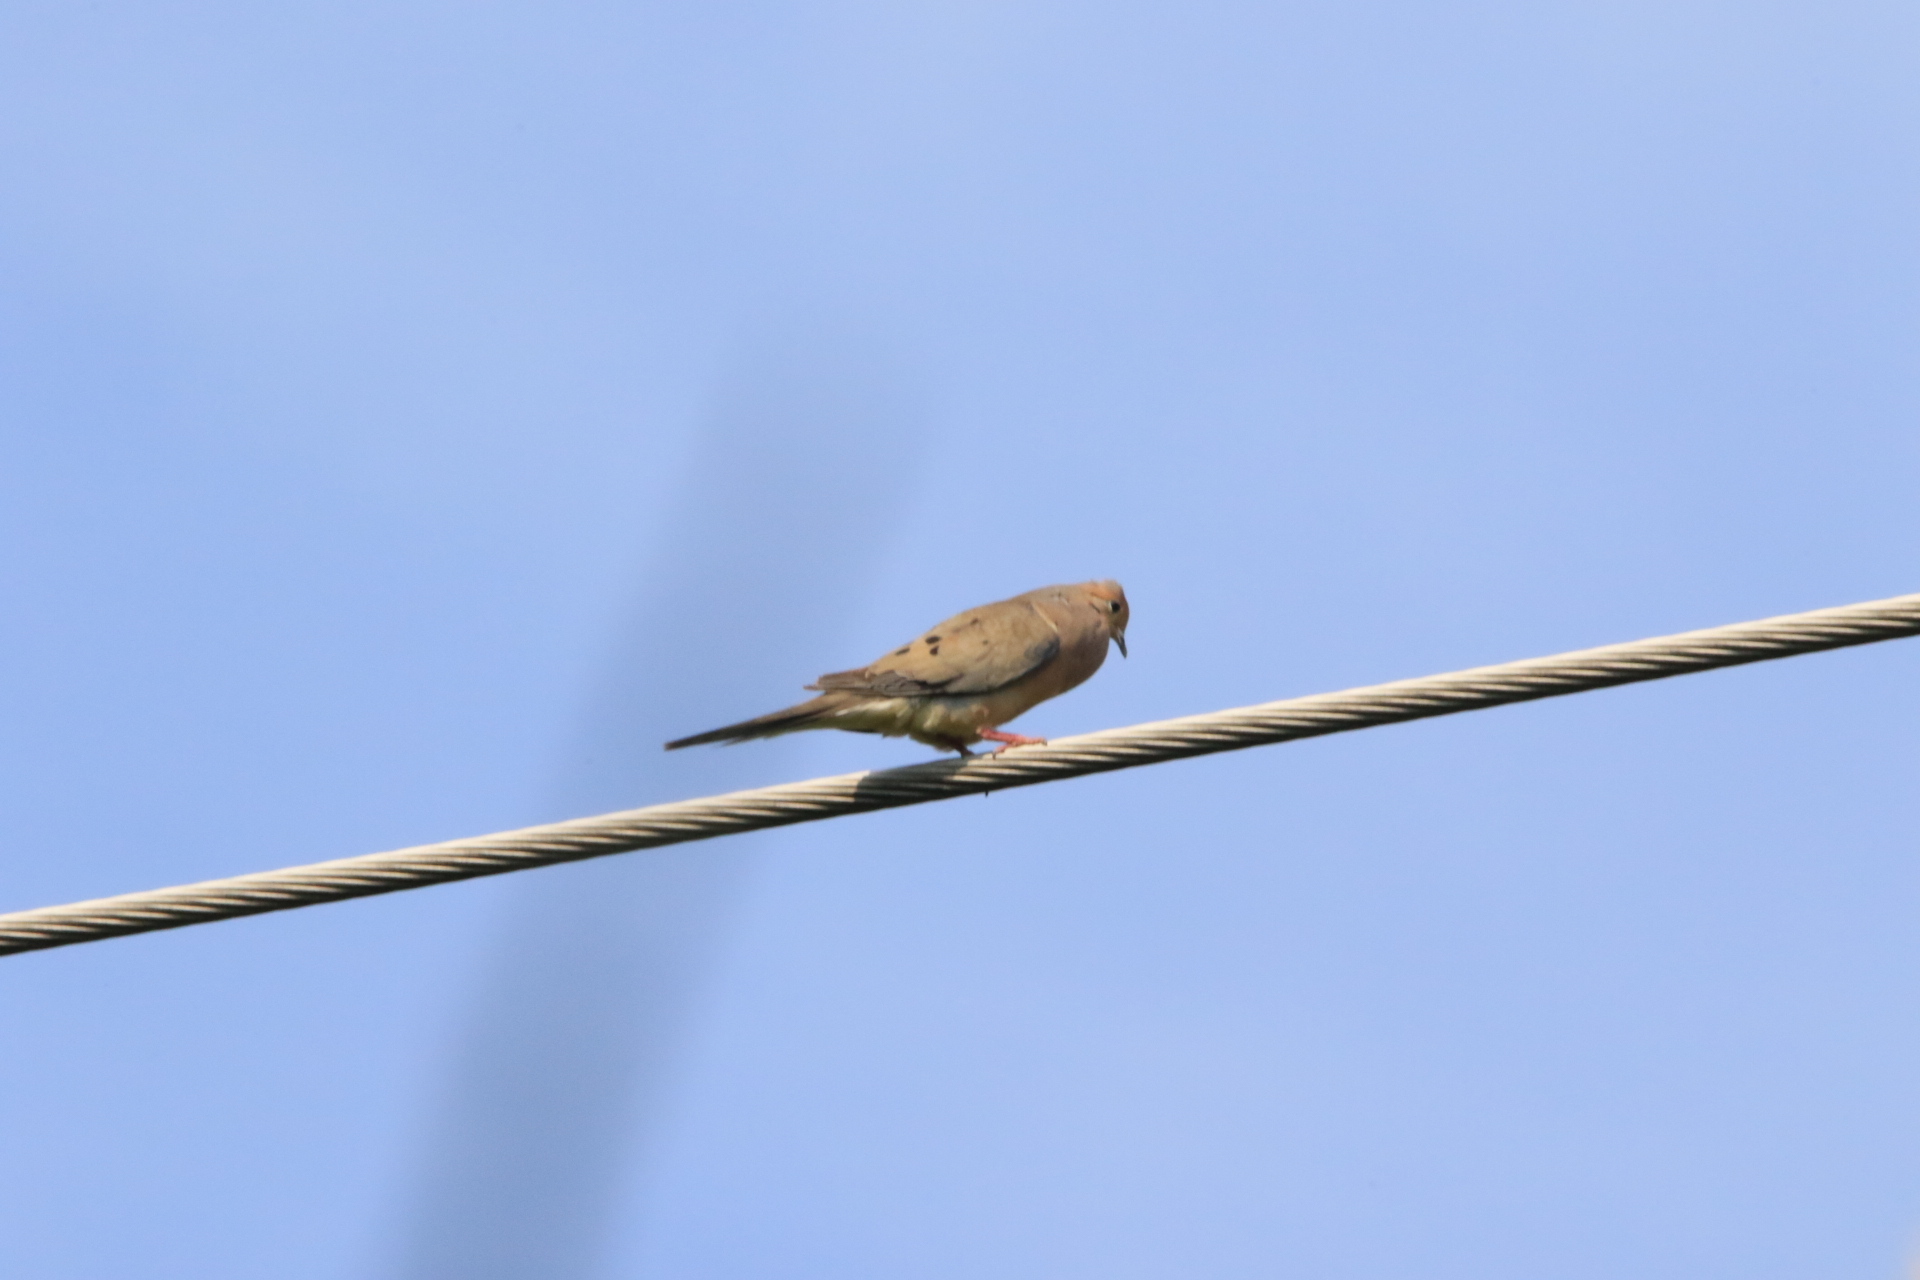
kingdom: Animalia
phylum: Chordata
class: Aves
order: Columbiformes
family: Columbidae
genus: Zenaida
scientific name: Zenaida macroura
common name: Mourning dove
